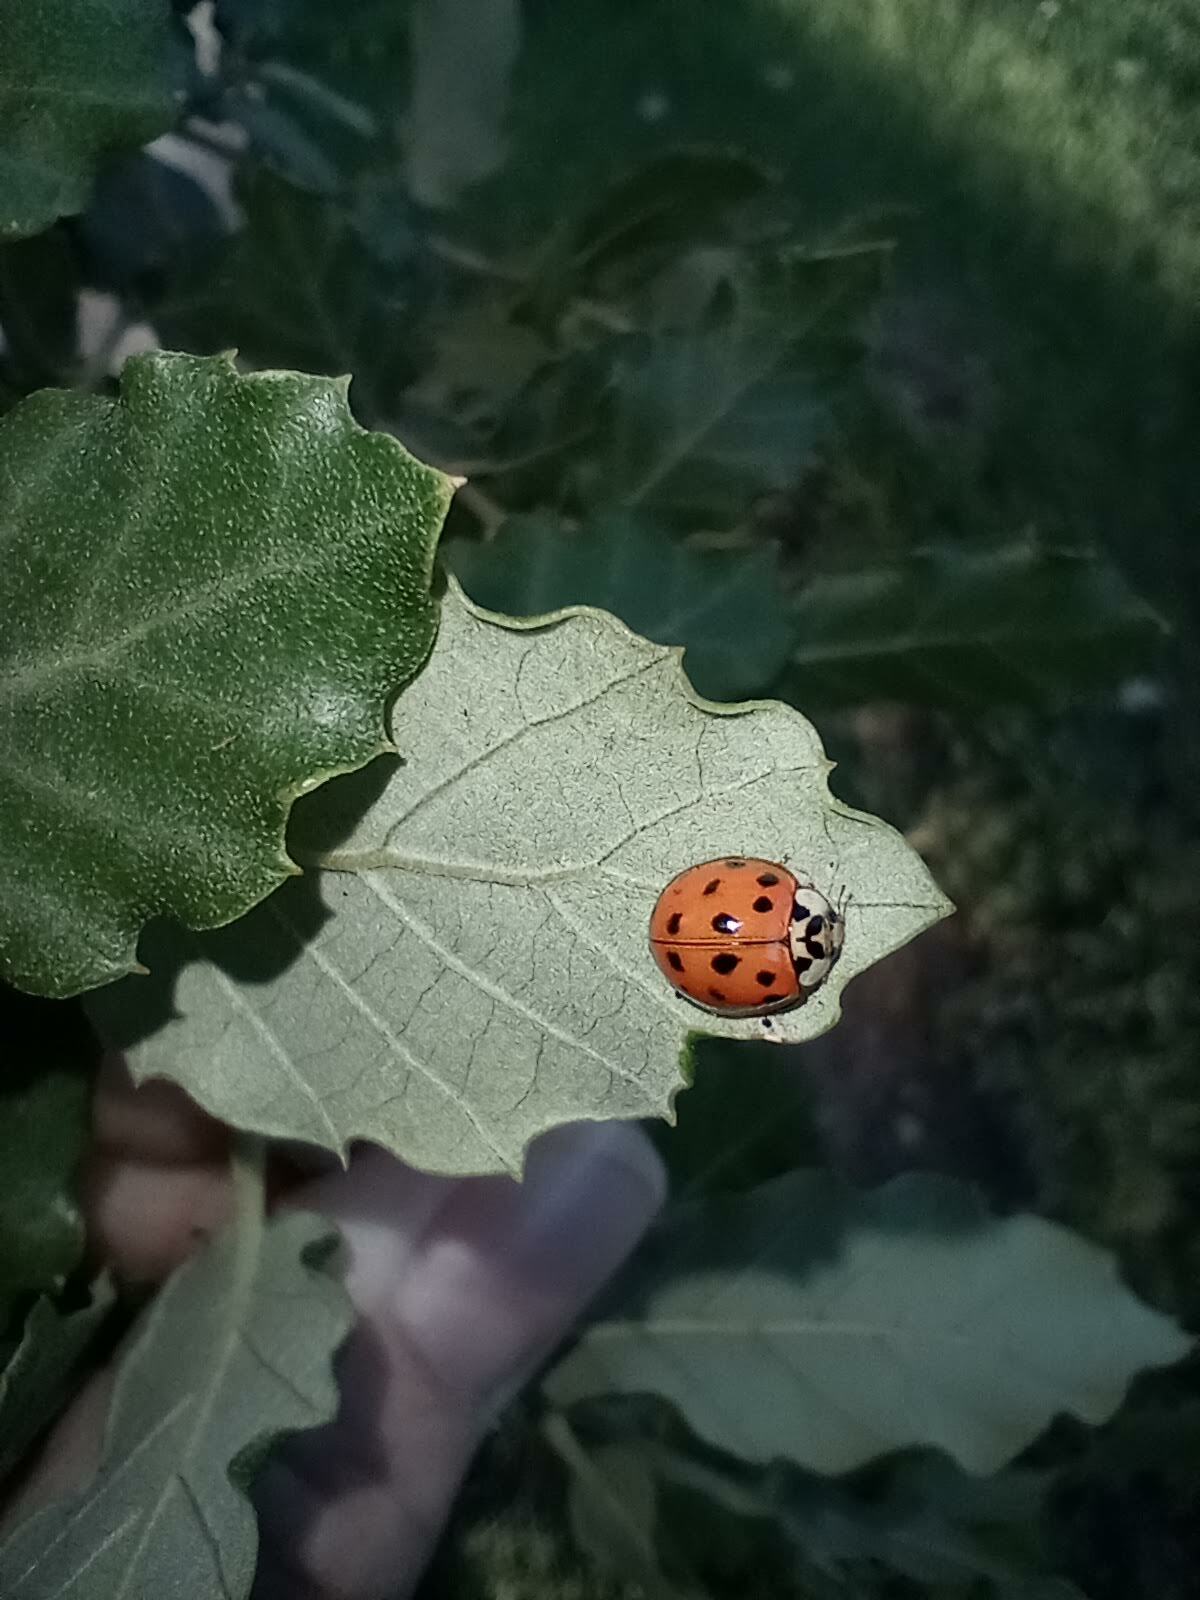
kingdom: Animalia
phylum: Arthropoda
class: Insecta
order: Coleoptera
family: Coccinellidae
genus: Harmonia
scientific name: Harmonia axyridis
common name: Harlequin ladybird
